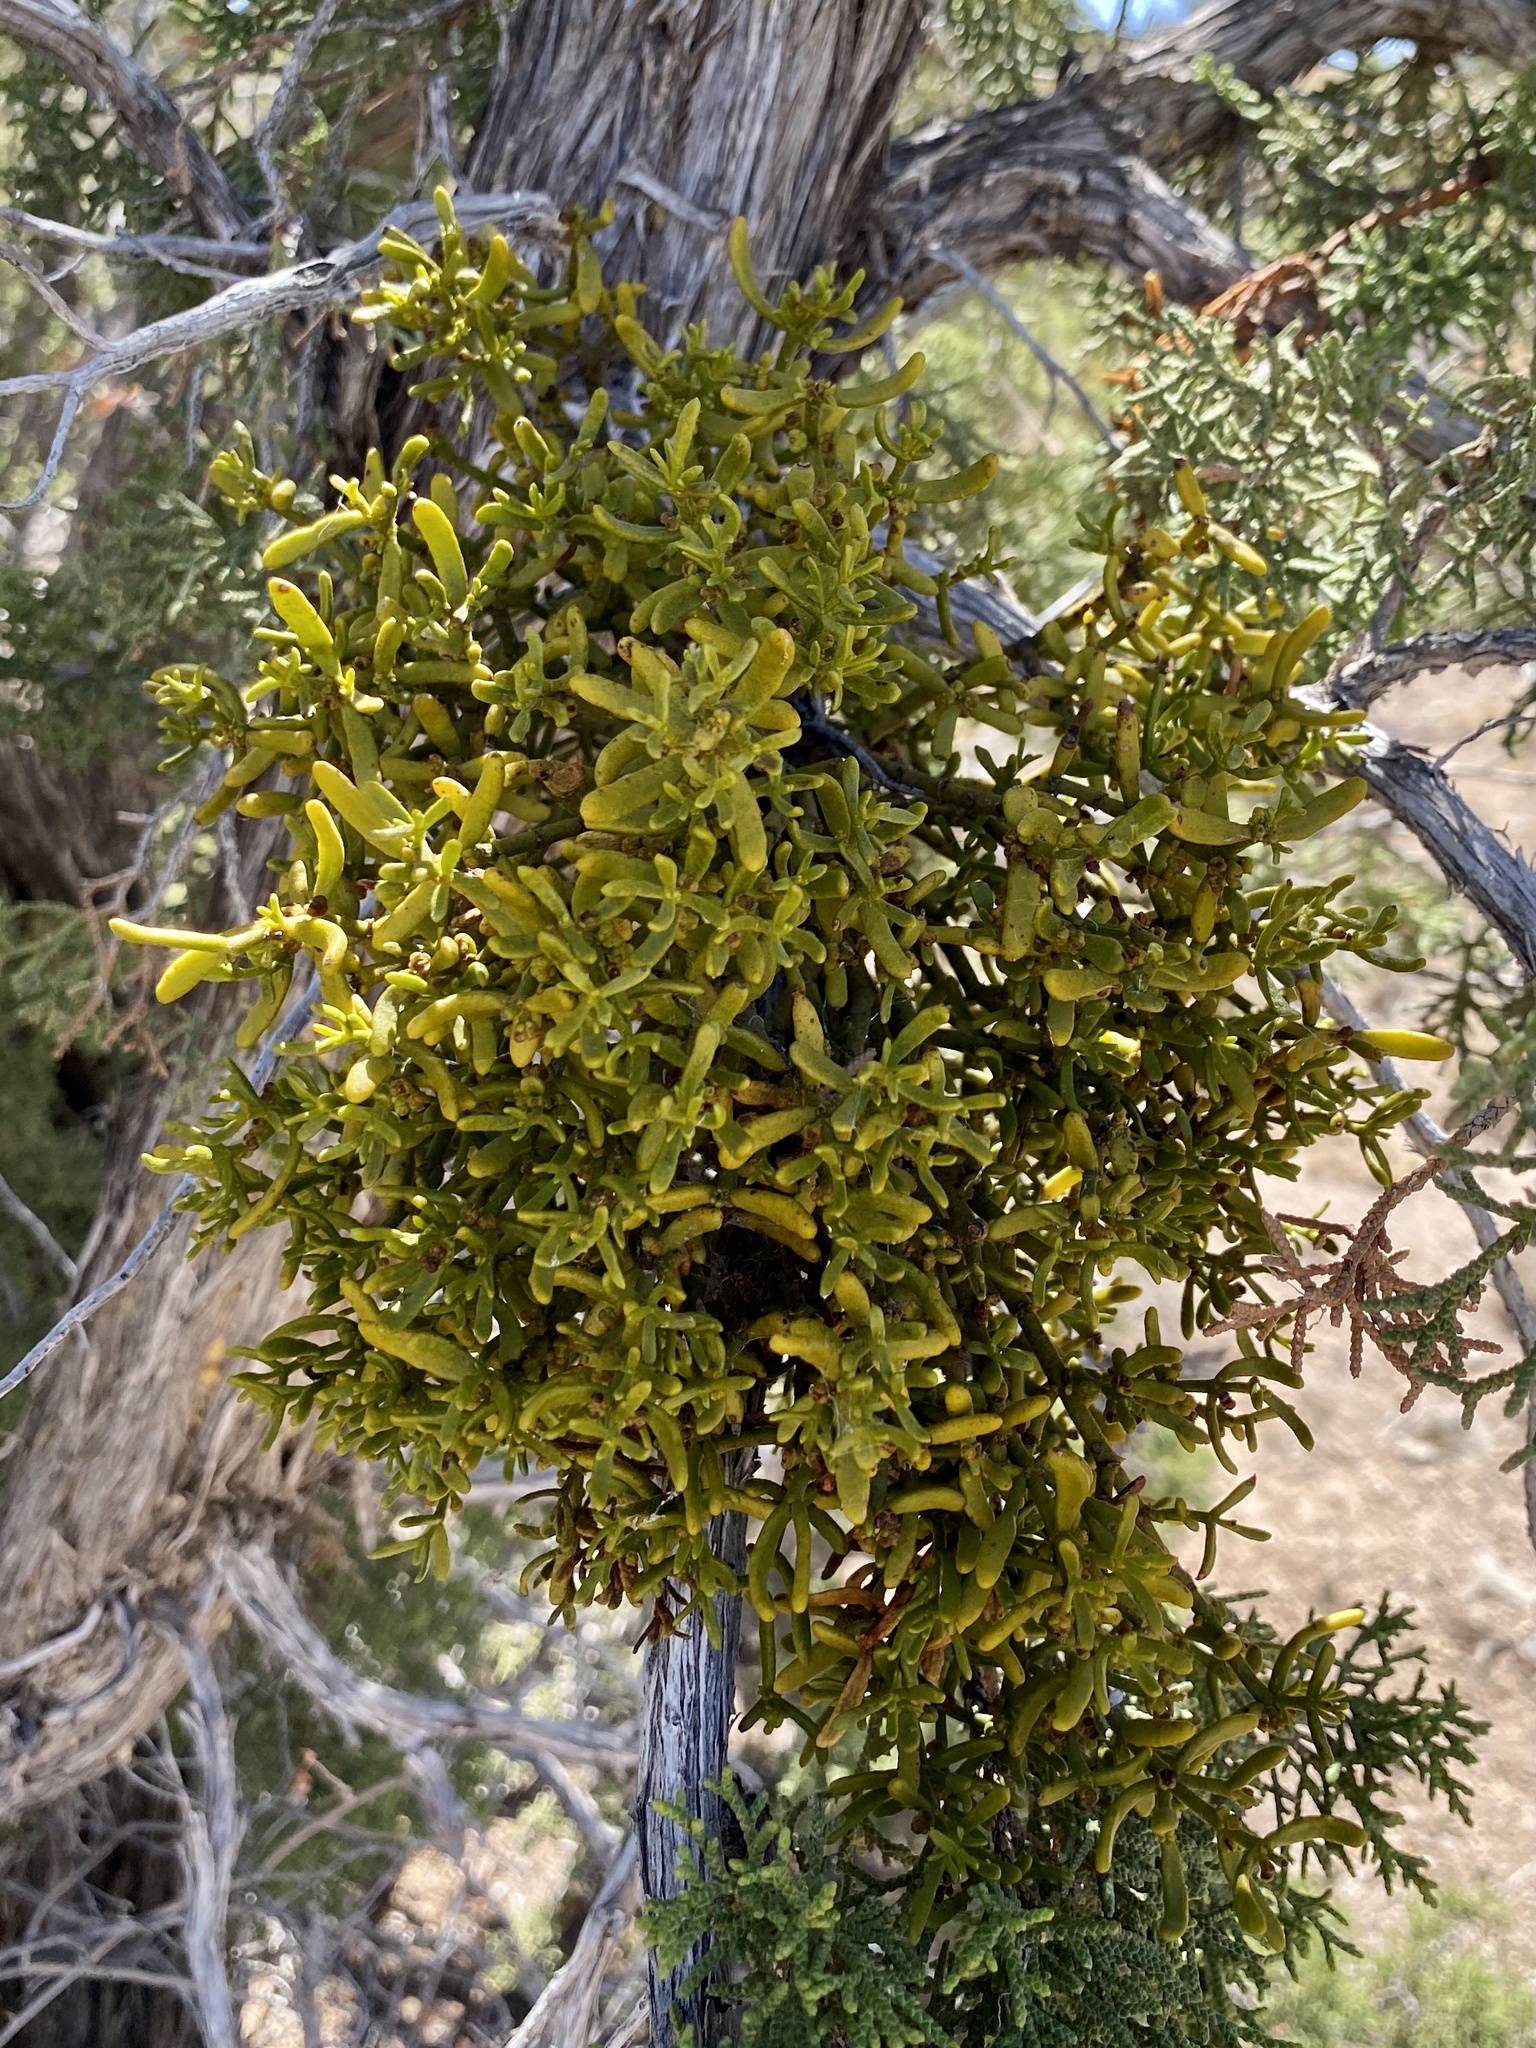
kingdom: Plantae
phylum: Tracheophyta
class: Magnoliopsida
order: Santalales
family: Viscaceae
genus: Phoradendron
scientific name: Phoradendron hawksworthii
